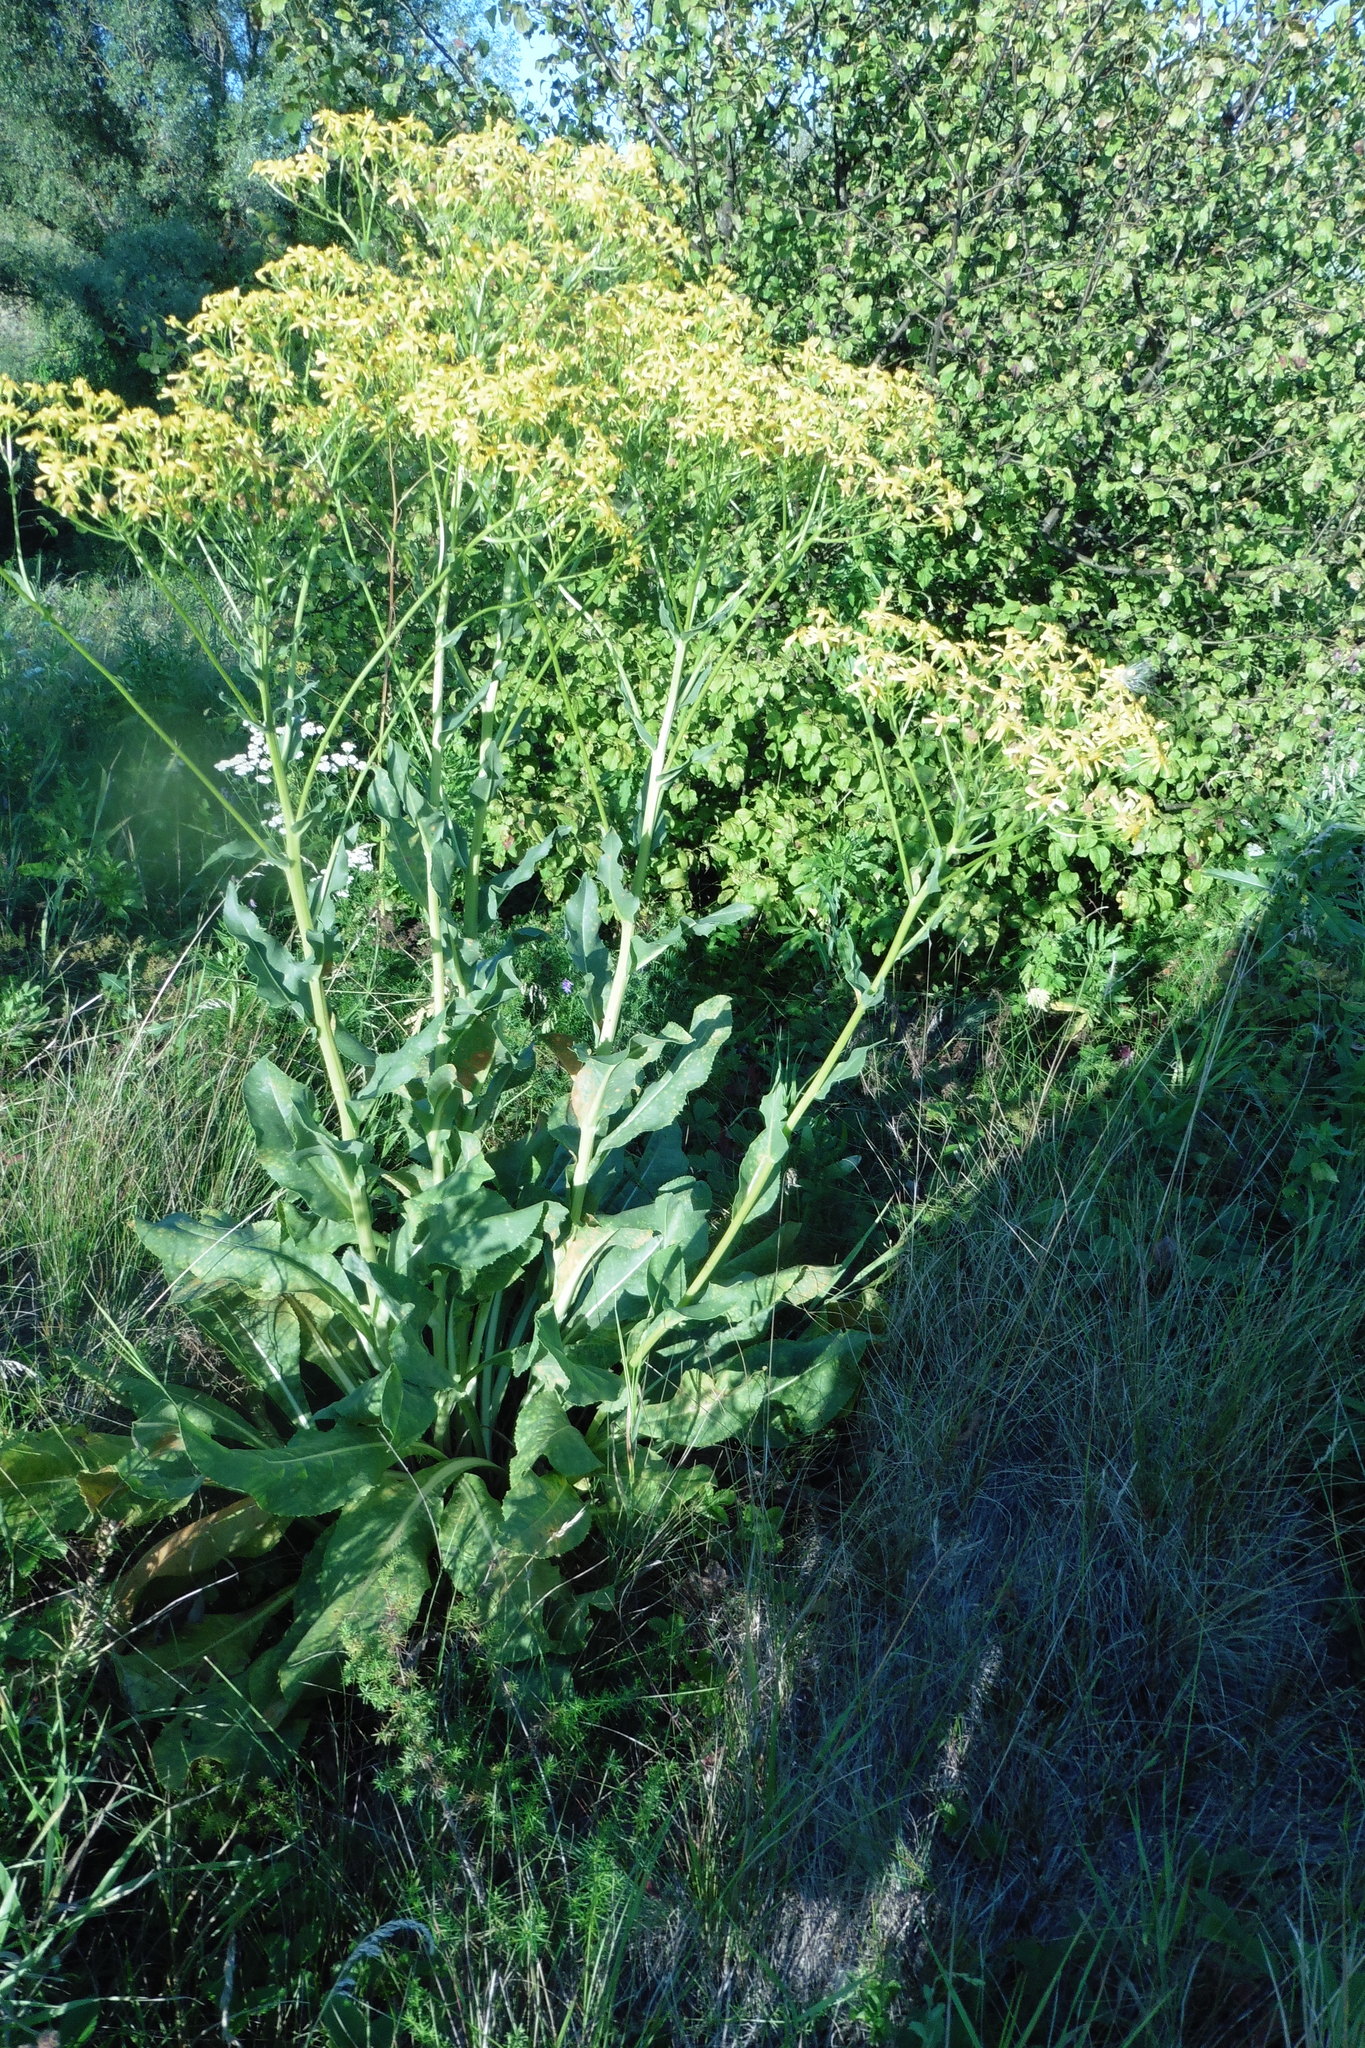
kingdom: Plantae
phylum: Tracheophyta
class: Magnoliopsida
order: Asterales
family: Asteraceae
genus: Senecio
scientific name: Senecio doria
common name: Golden ragwort
